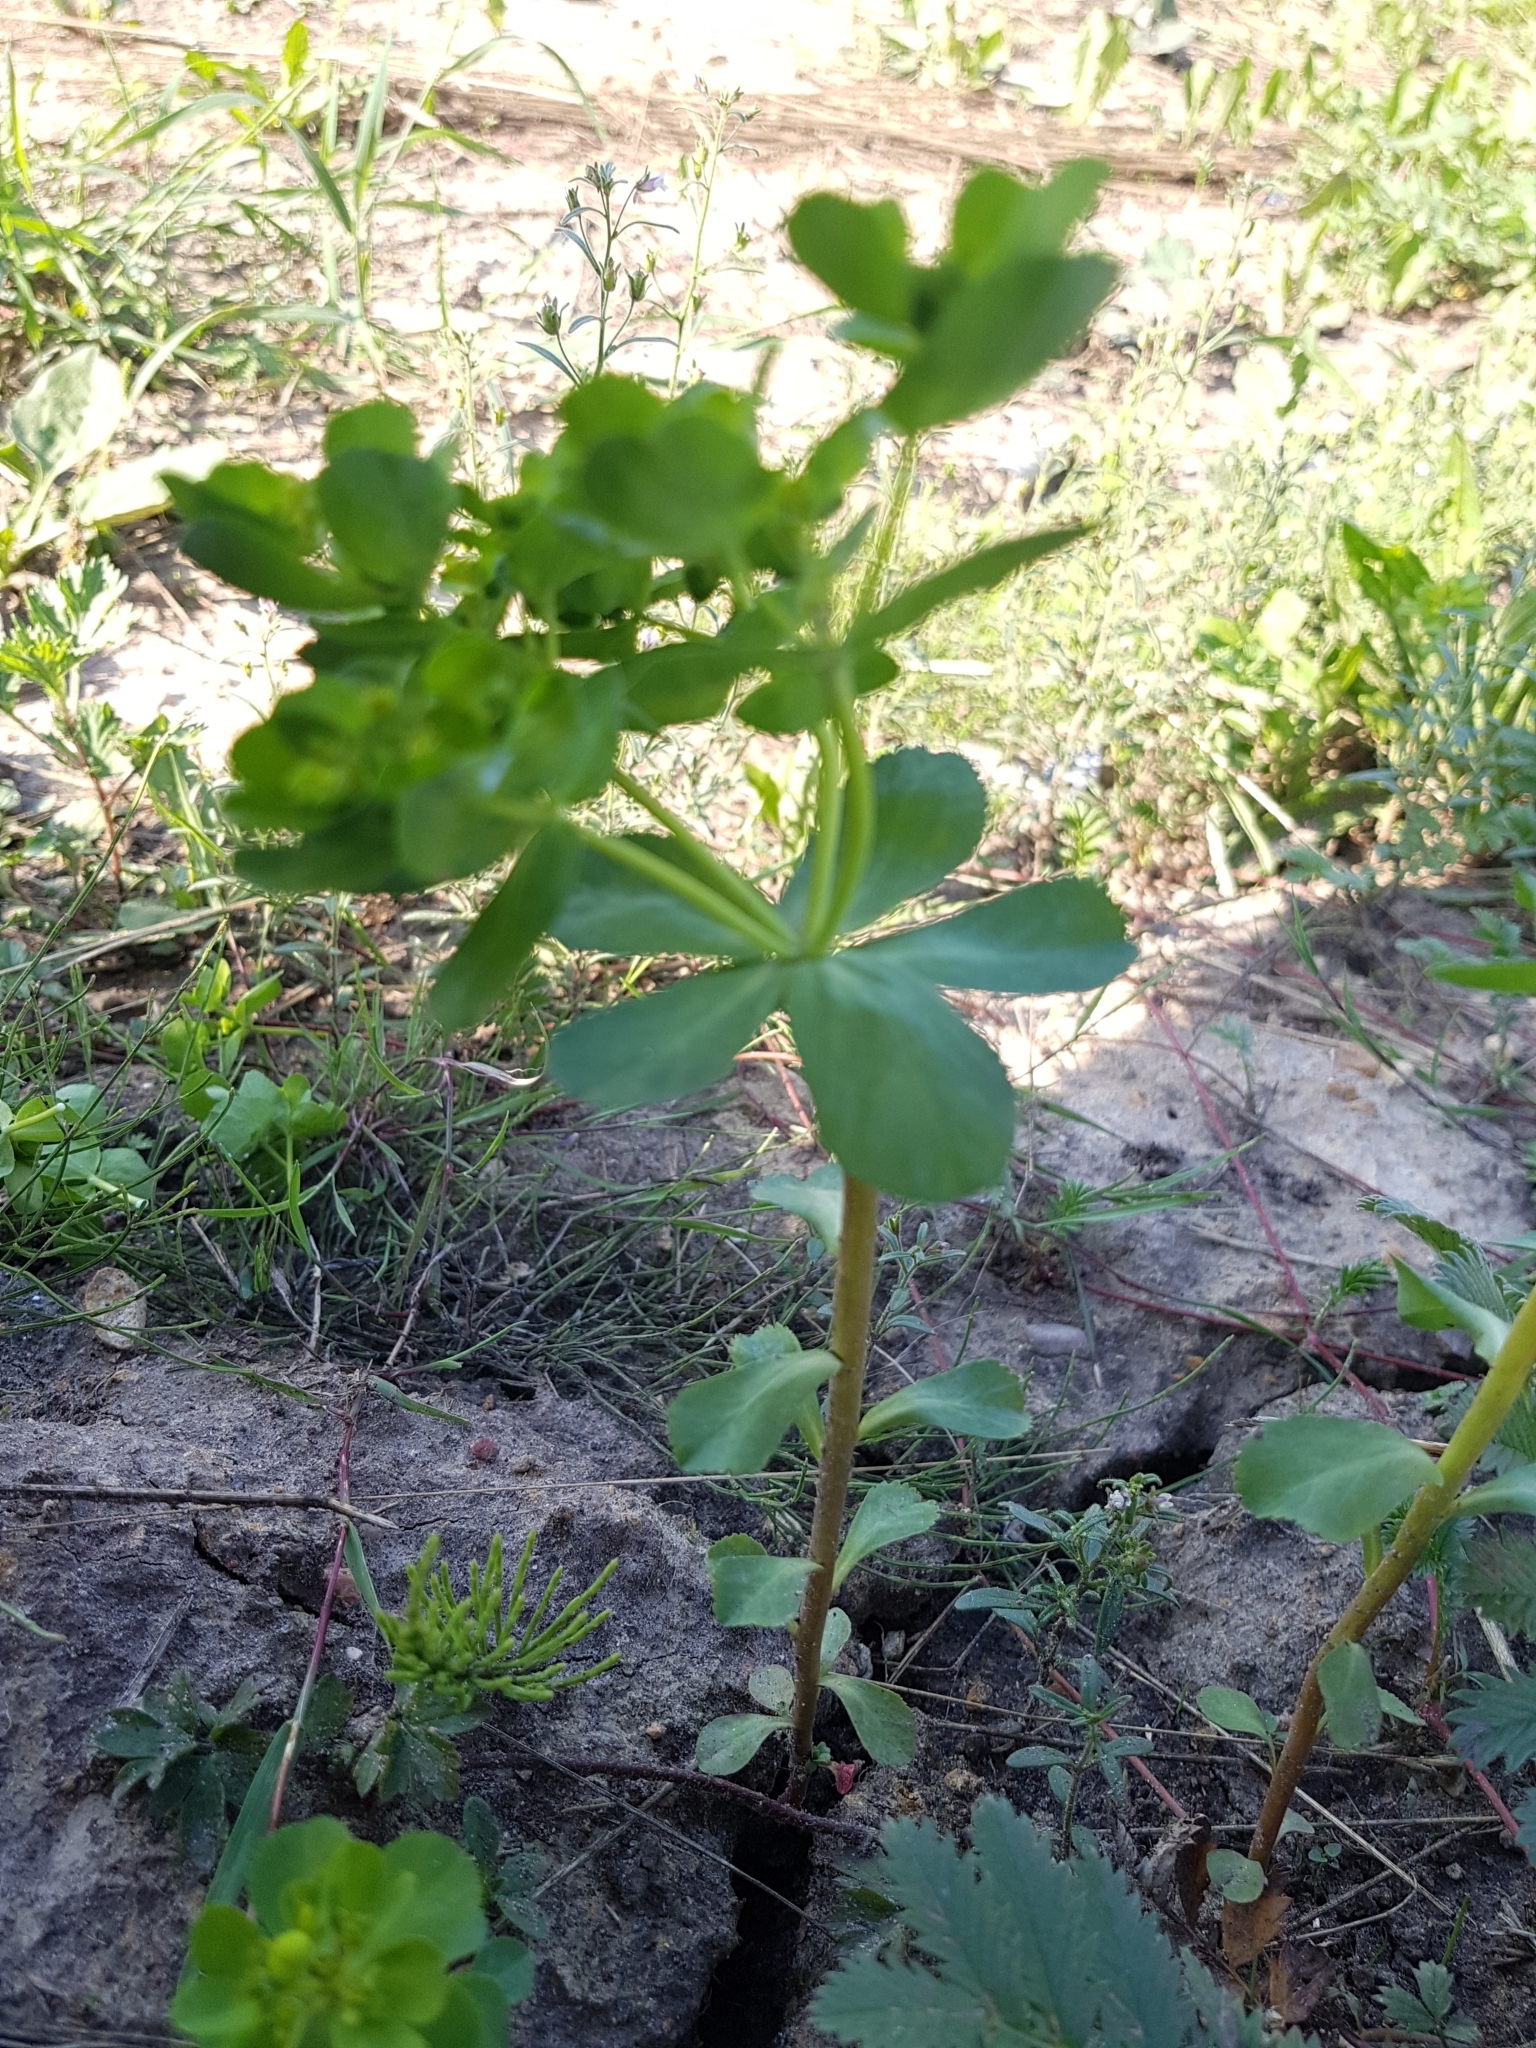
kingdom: Plantae
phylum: Tracheophyta
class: Magnoliopsida
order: Malpighiales
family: Euphorbiaceae
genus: Euphorbia
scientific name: Euphorbia helioscopia
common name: Sun spurge
